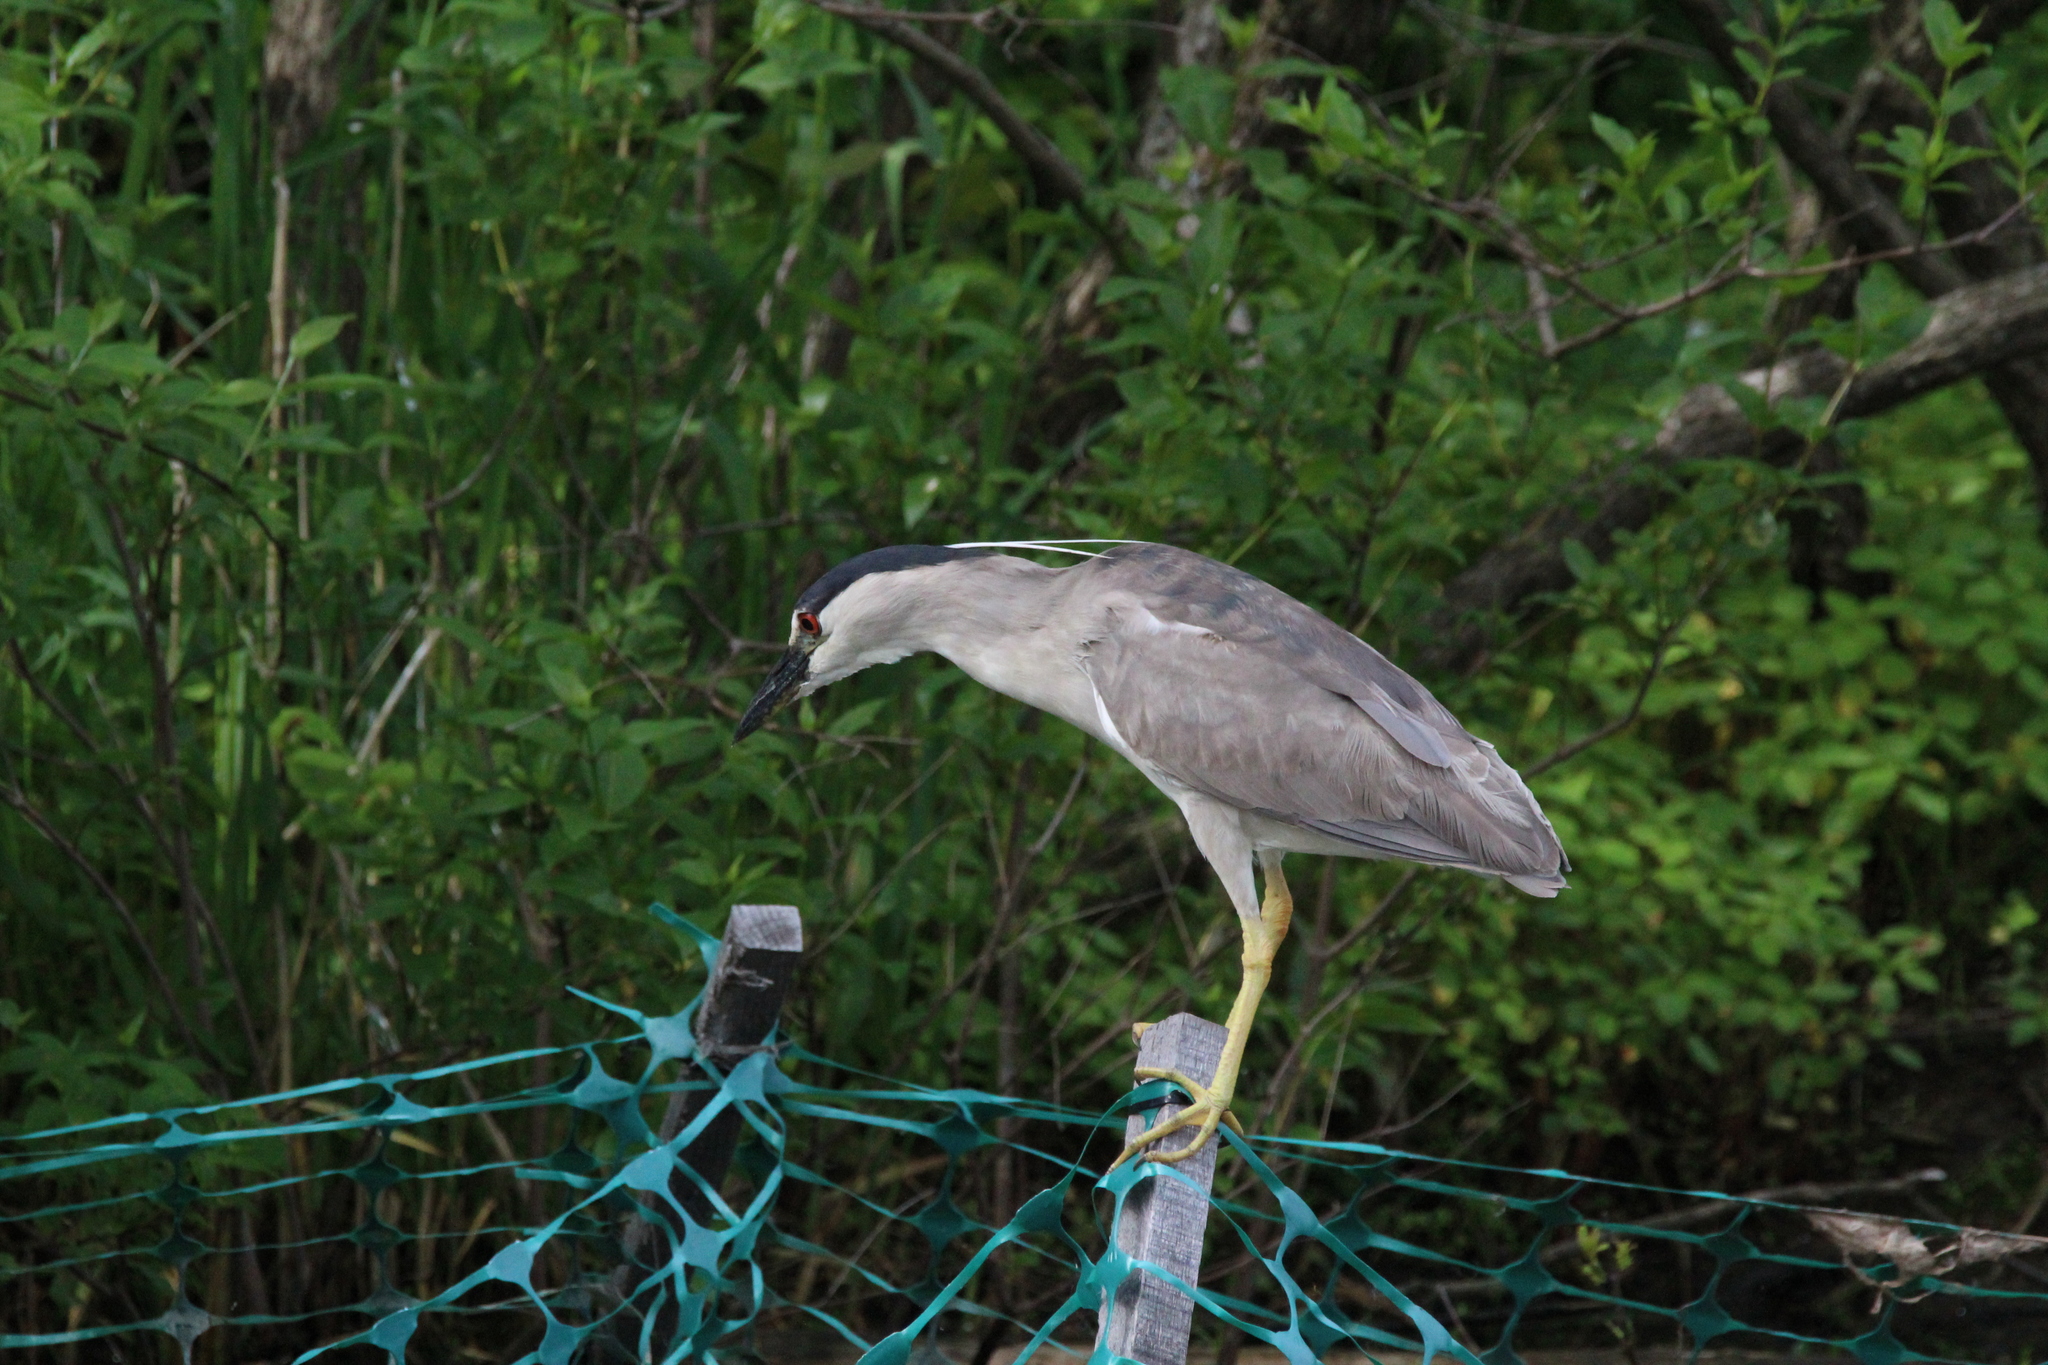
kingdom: Animalia
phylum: Chordata
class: Aves
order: Pelecaniformes
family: Ardeidae
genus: Nycticorax
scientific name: Nycticorax nycticorax
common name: Black-crowned night heron
